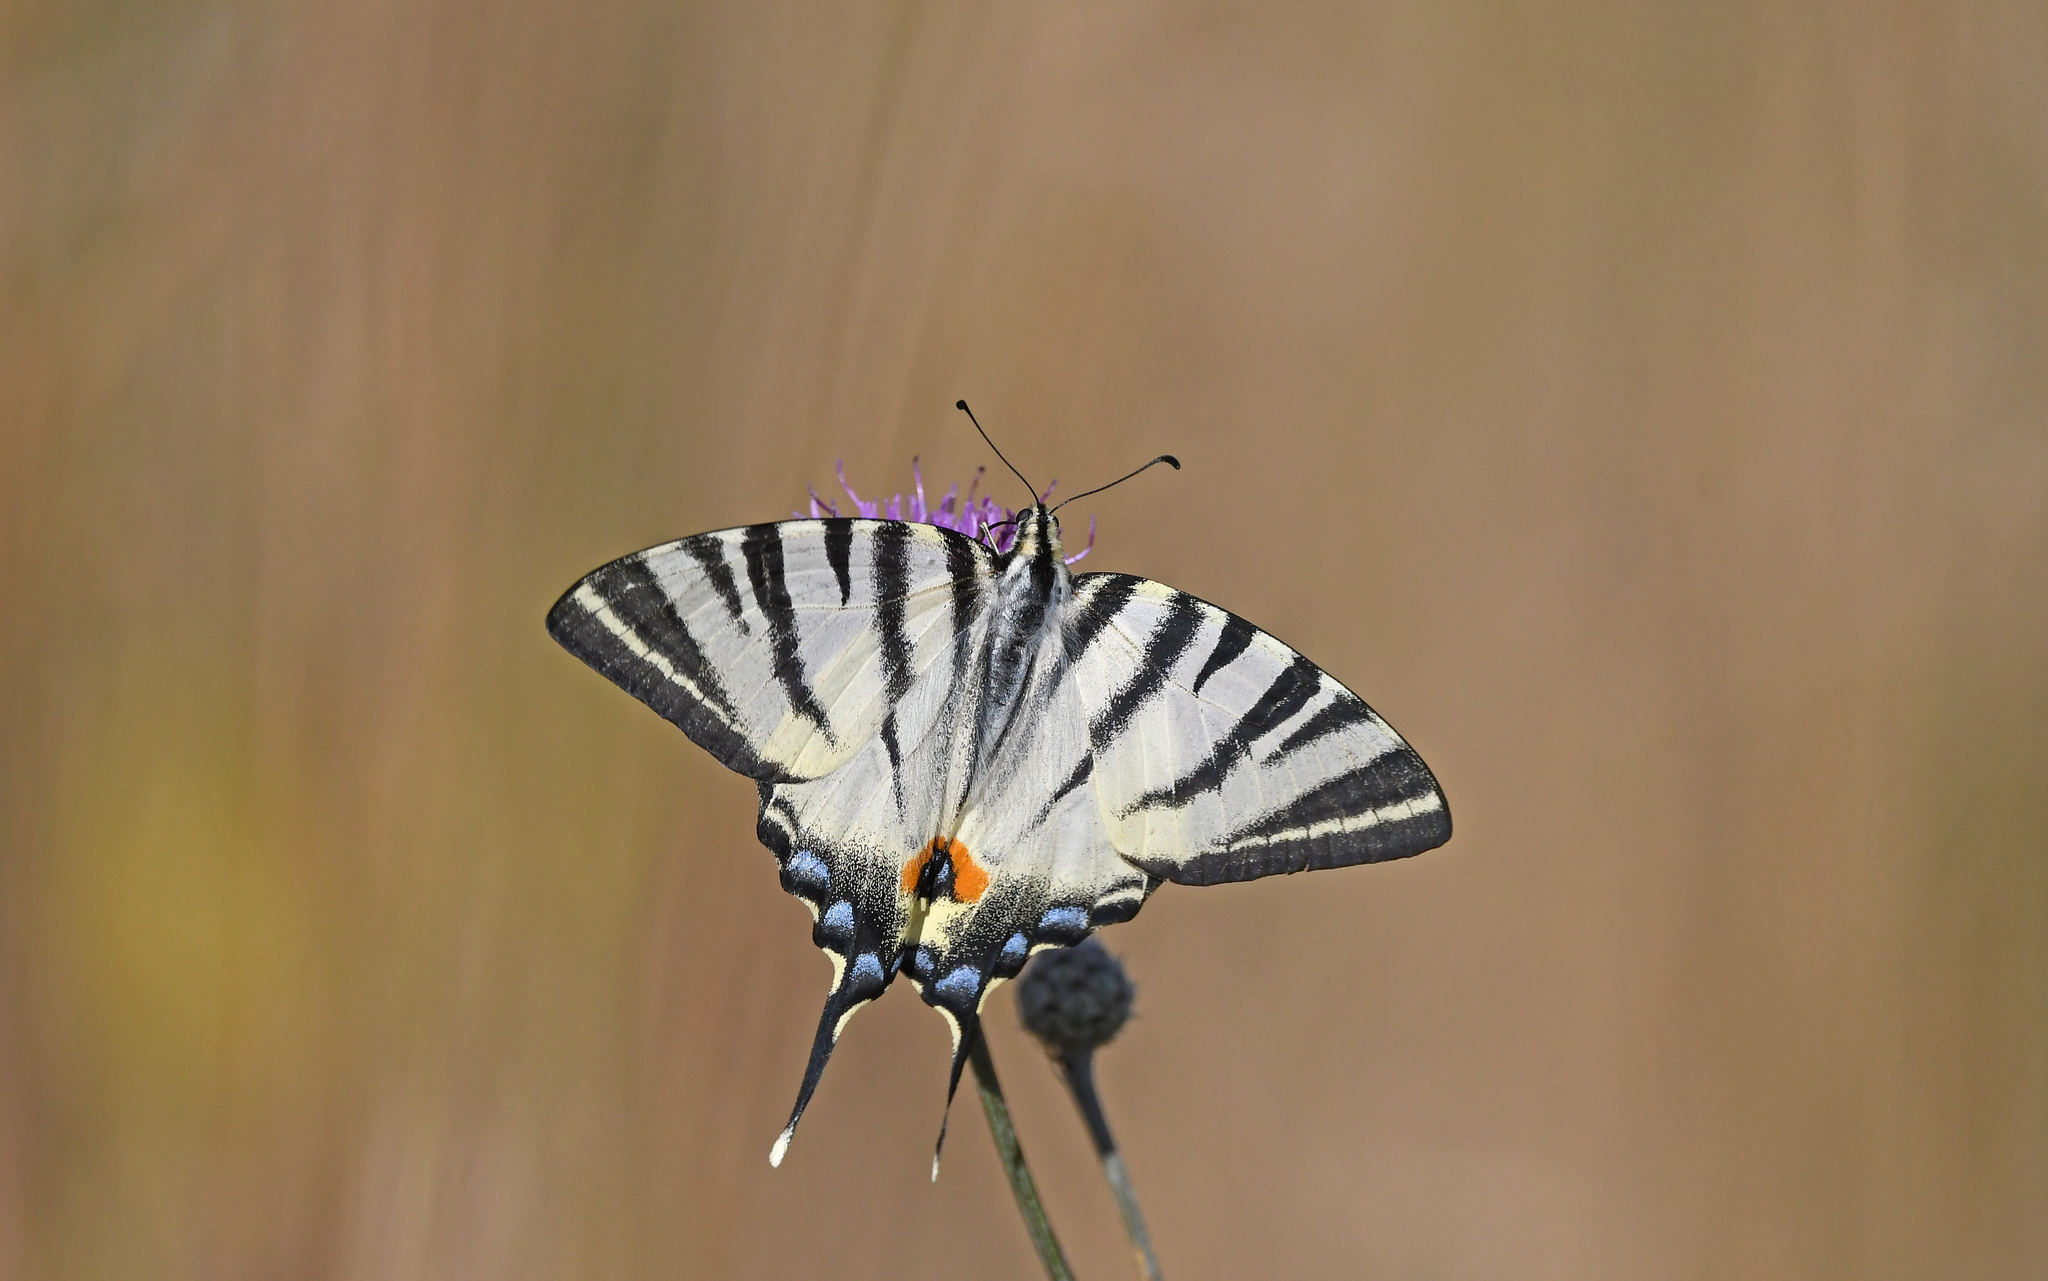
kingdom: Animalia
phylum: Arthropoda
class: Insecta
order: Lepidoptera
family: Papilionidae
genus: Iphiclides
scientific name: Iphiclides podalirius
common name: Scarce swallowtail
